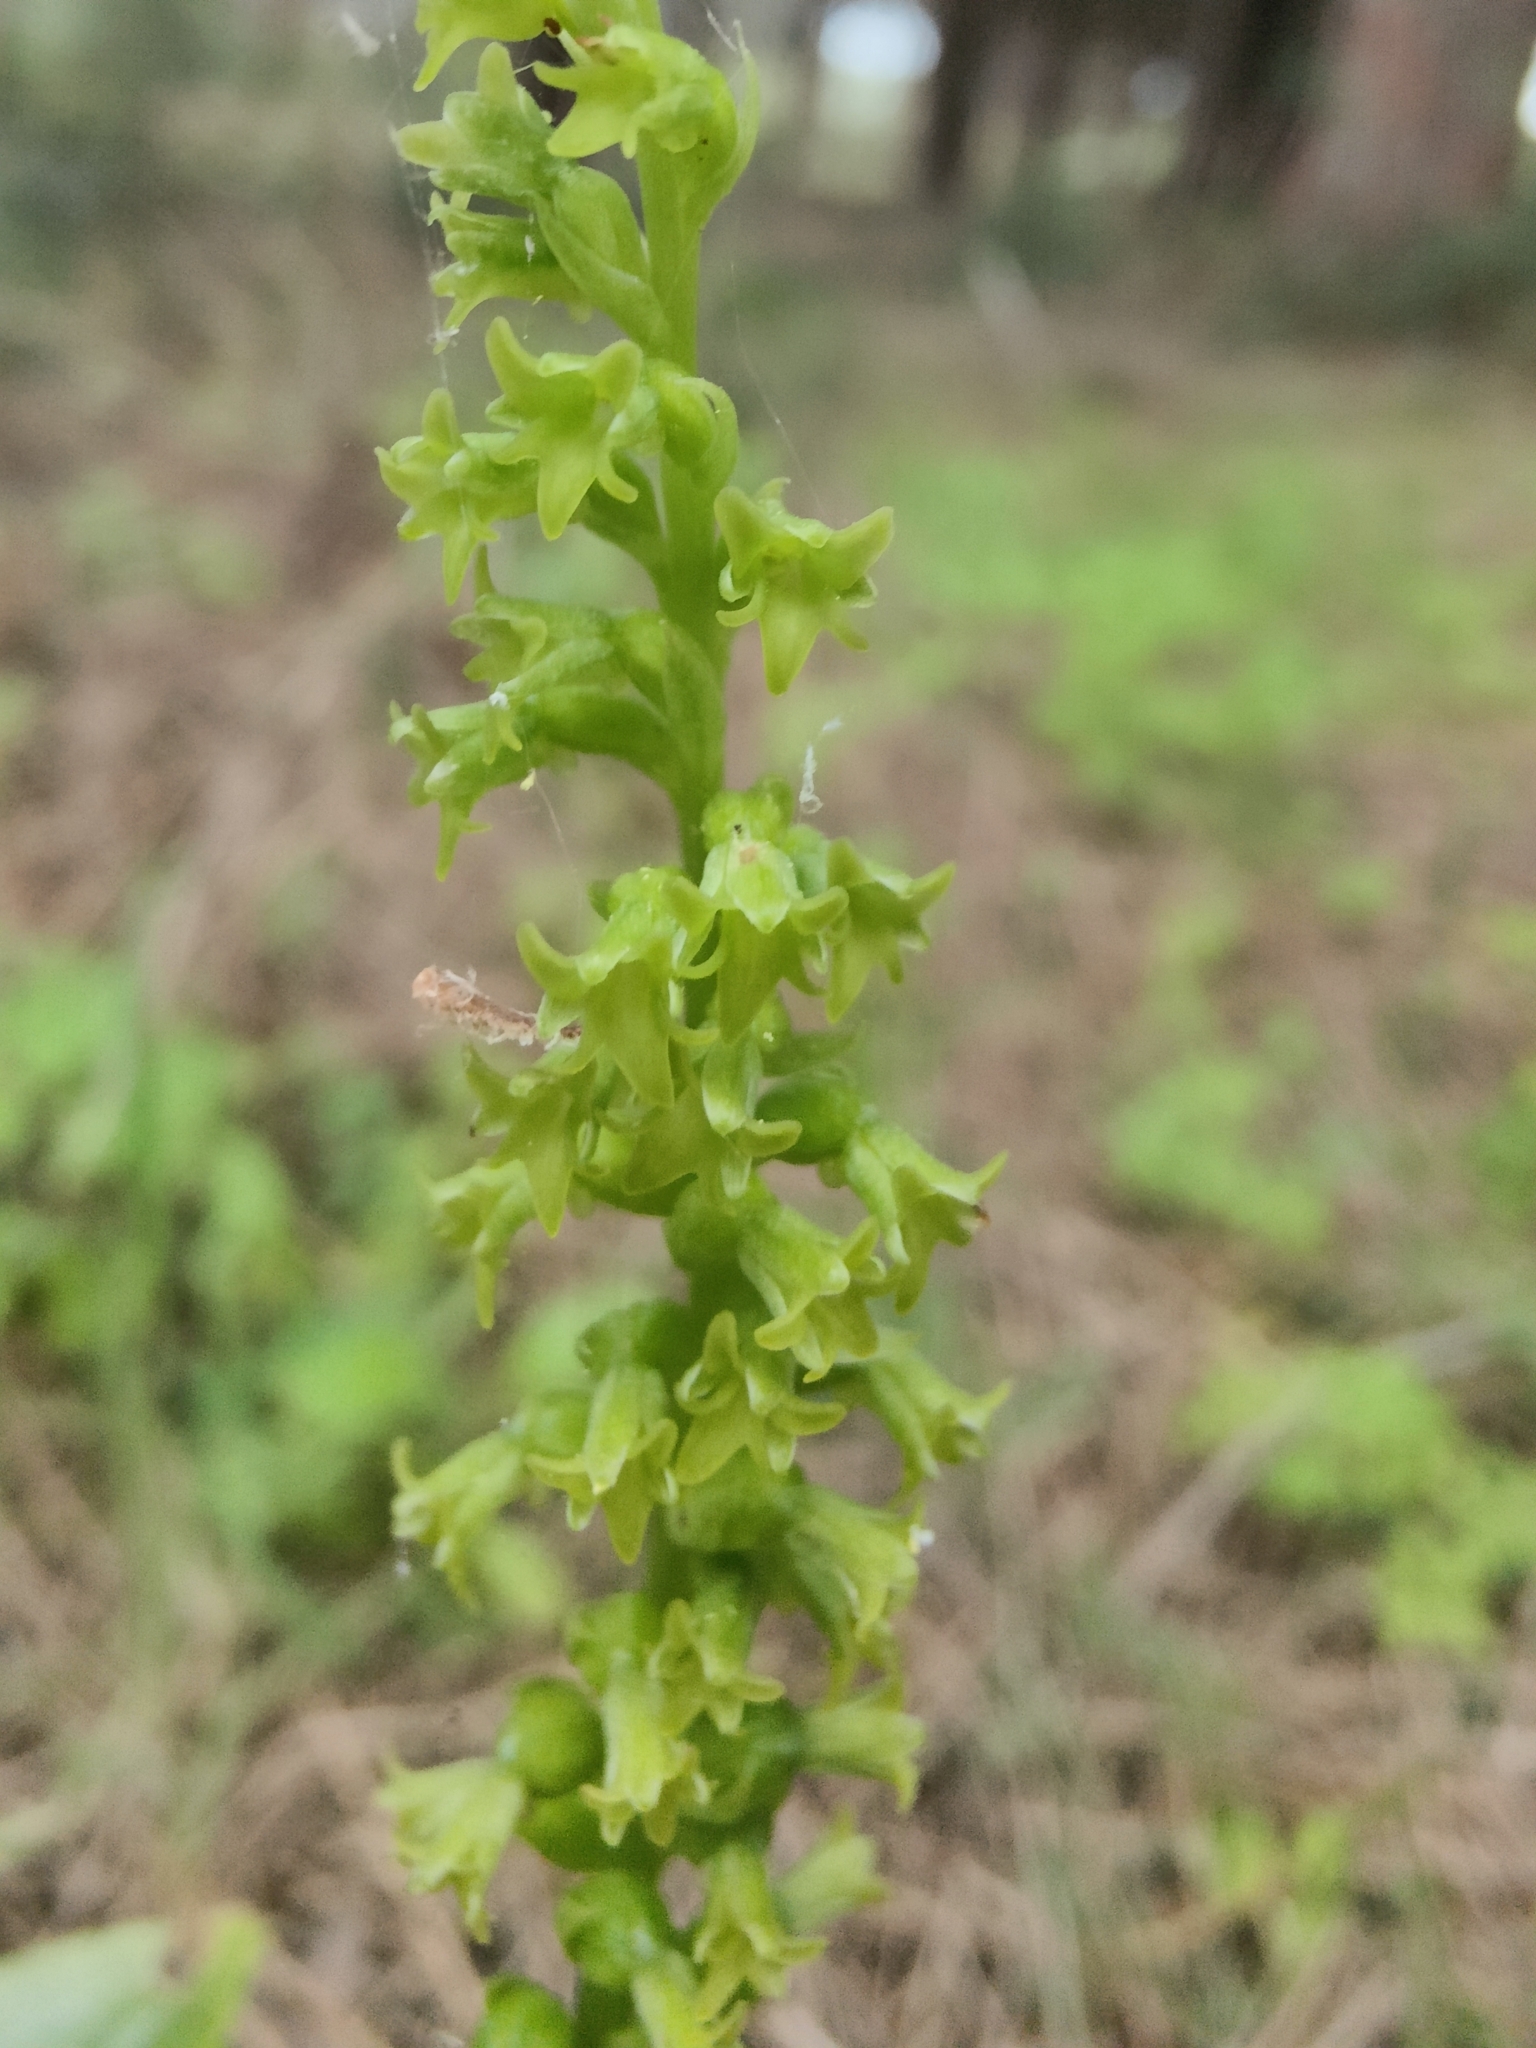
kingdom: Plantae
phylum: Tracheophyta
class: Liliopsida
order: Asparagales
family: Orchidaceae
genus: Gennaria
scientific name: Gennaria diphylla
